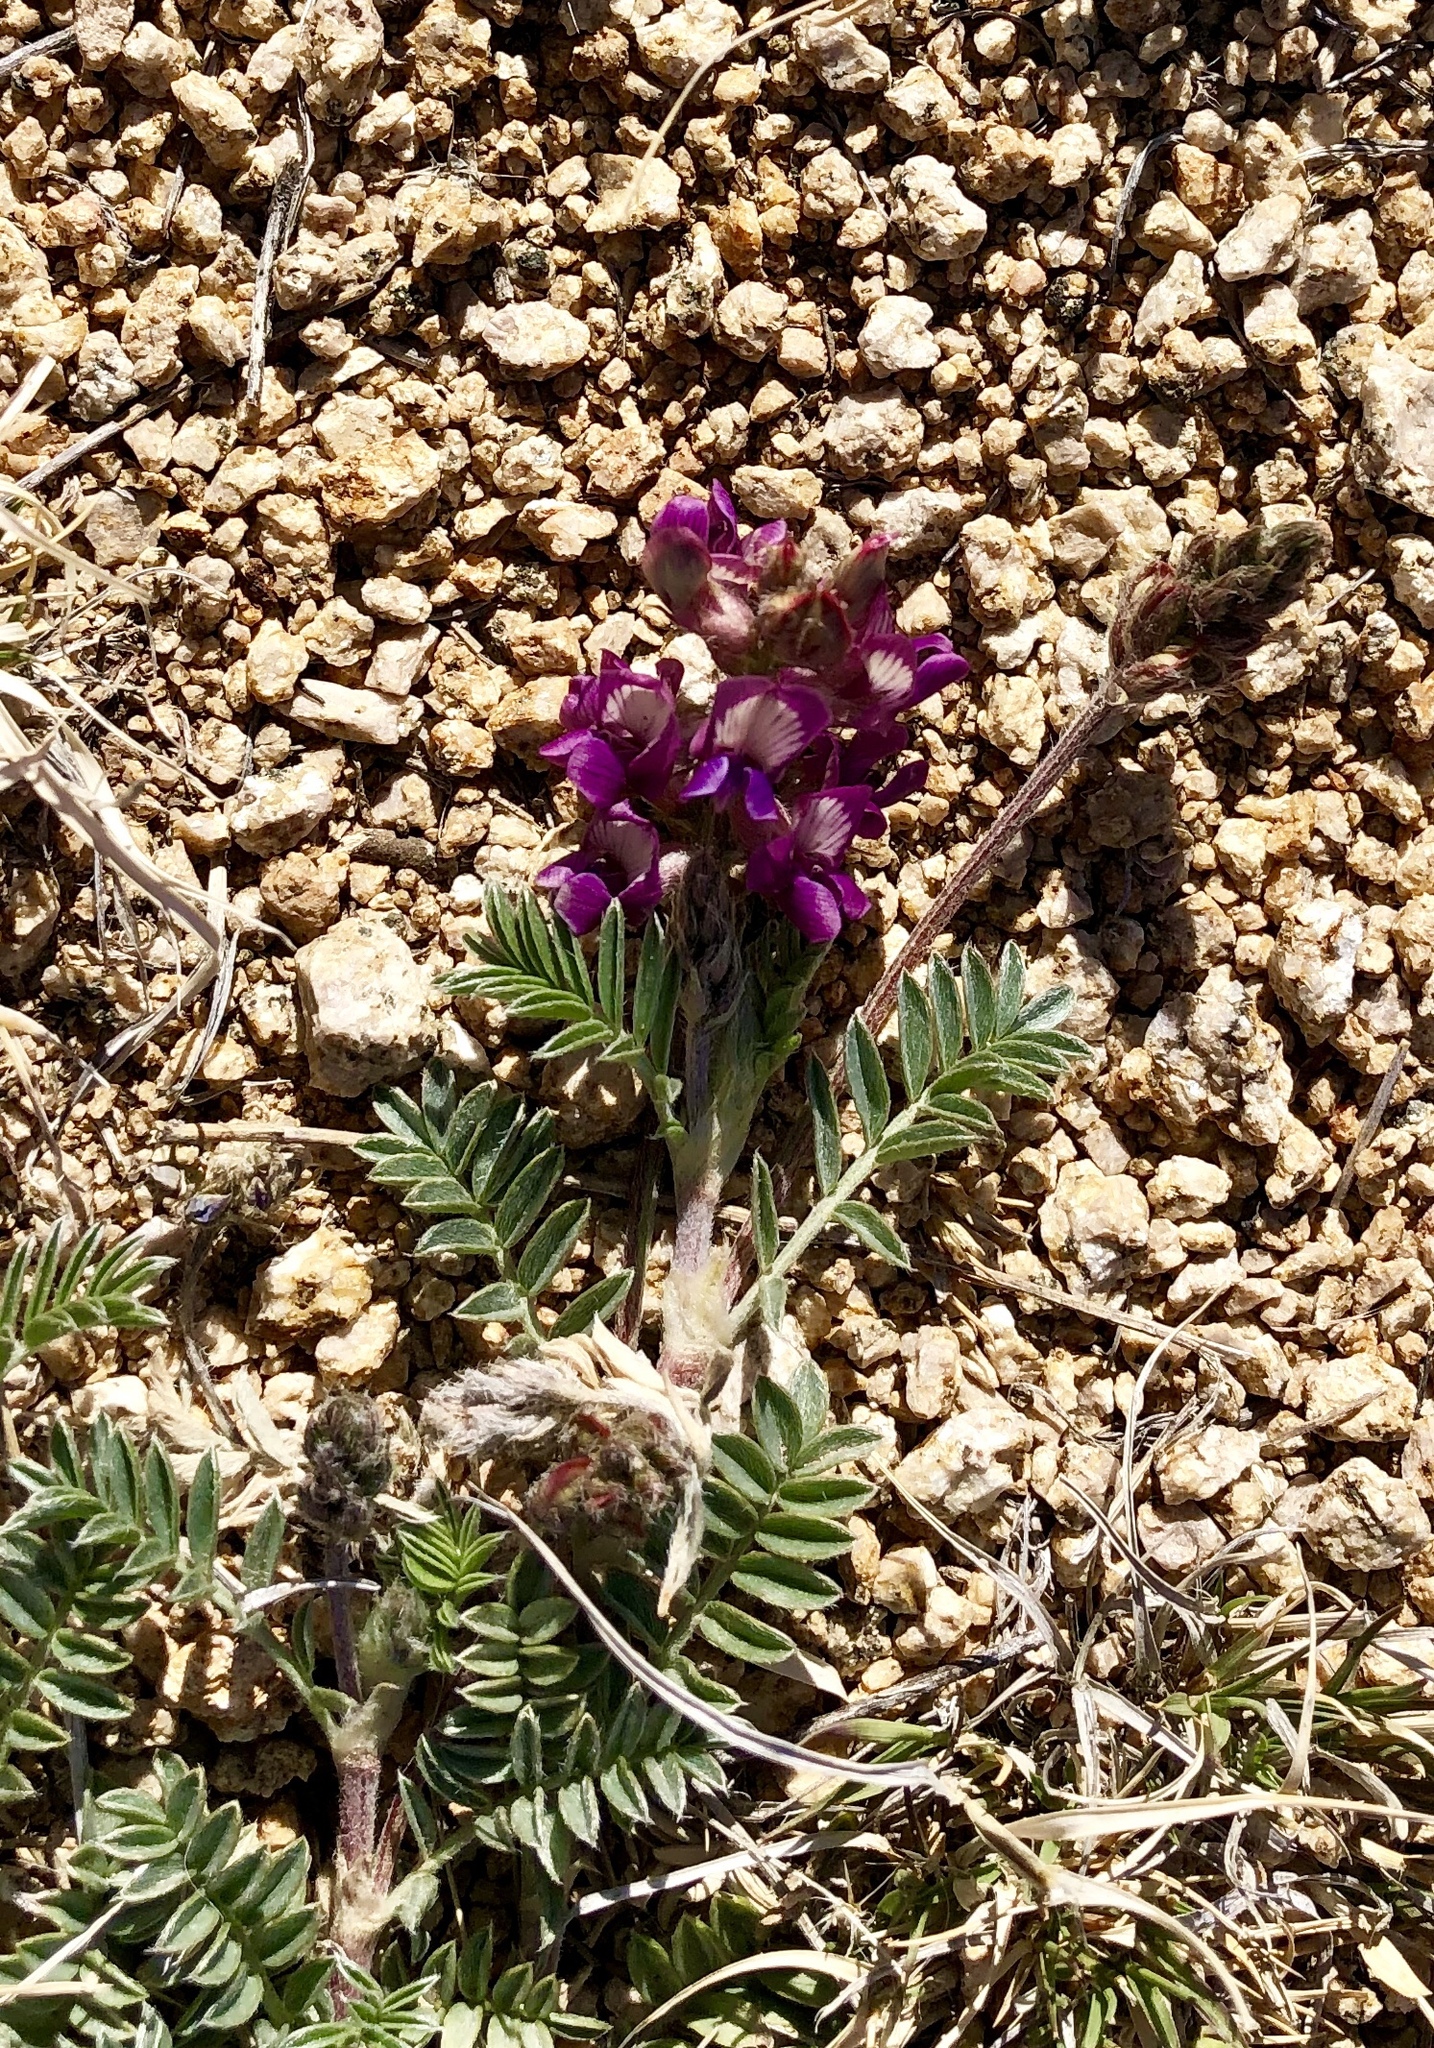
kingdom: Plantae
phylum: Tracheophyta
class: Magnoliopsida
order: Fabales
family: Fabaceae
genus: Astragalus
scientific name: Astragalus humistratus
